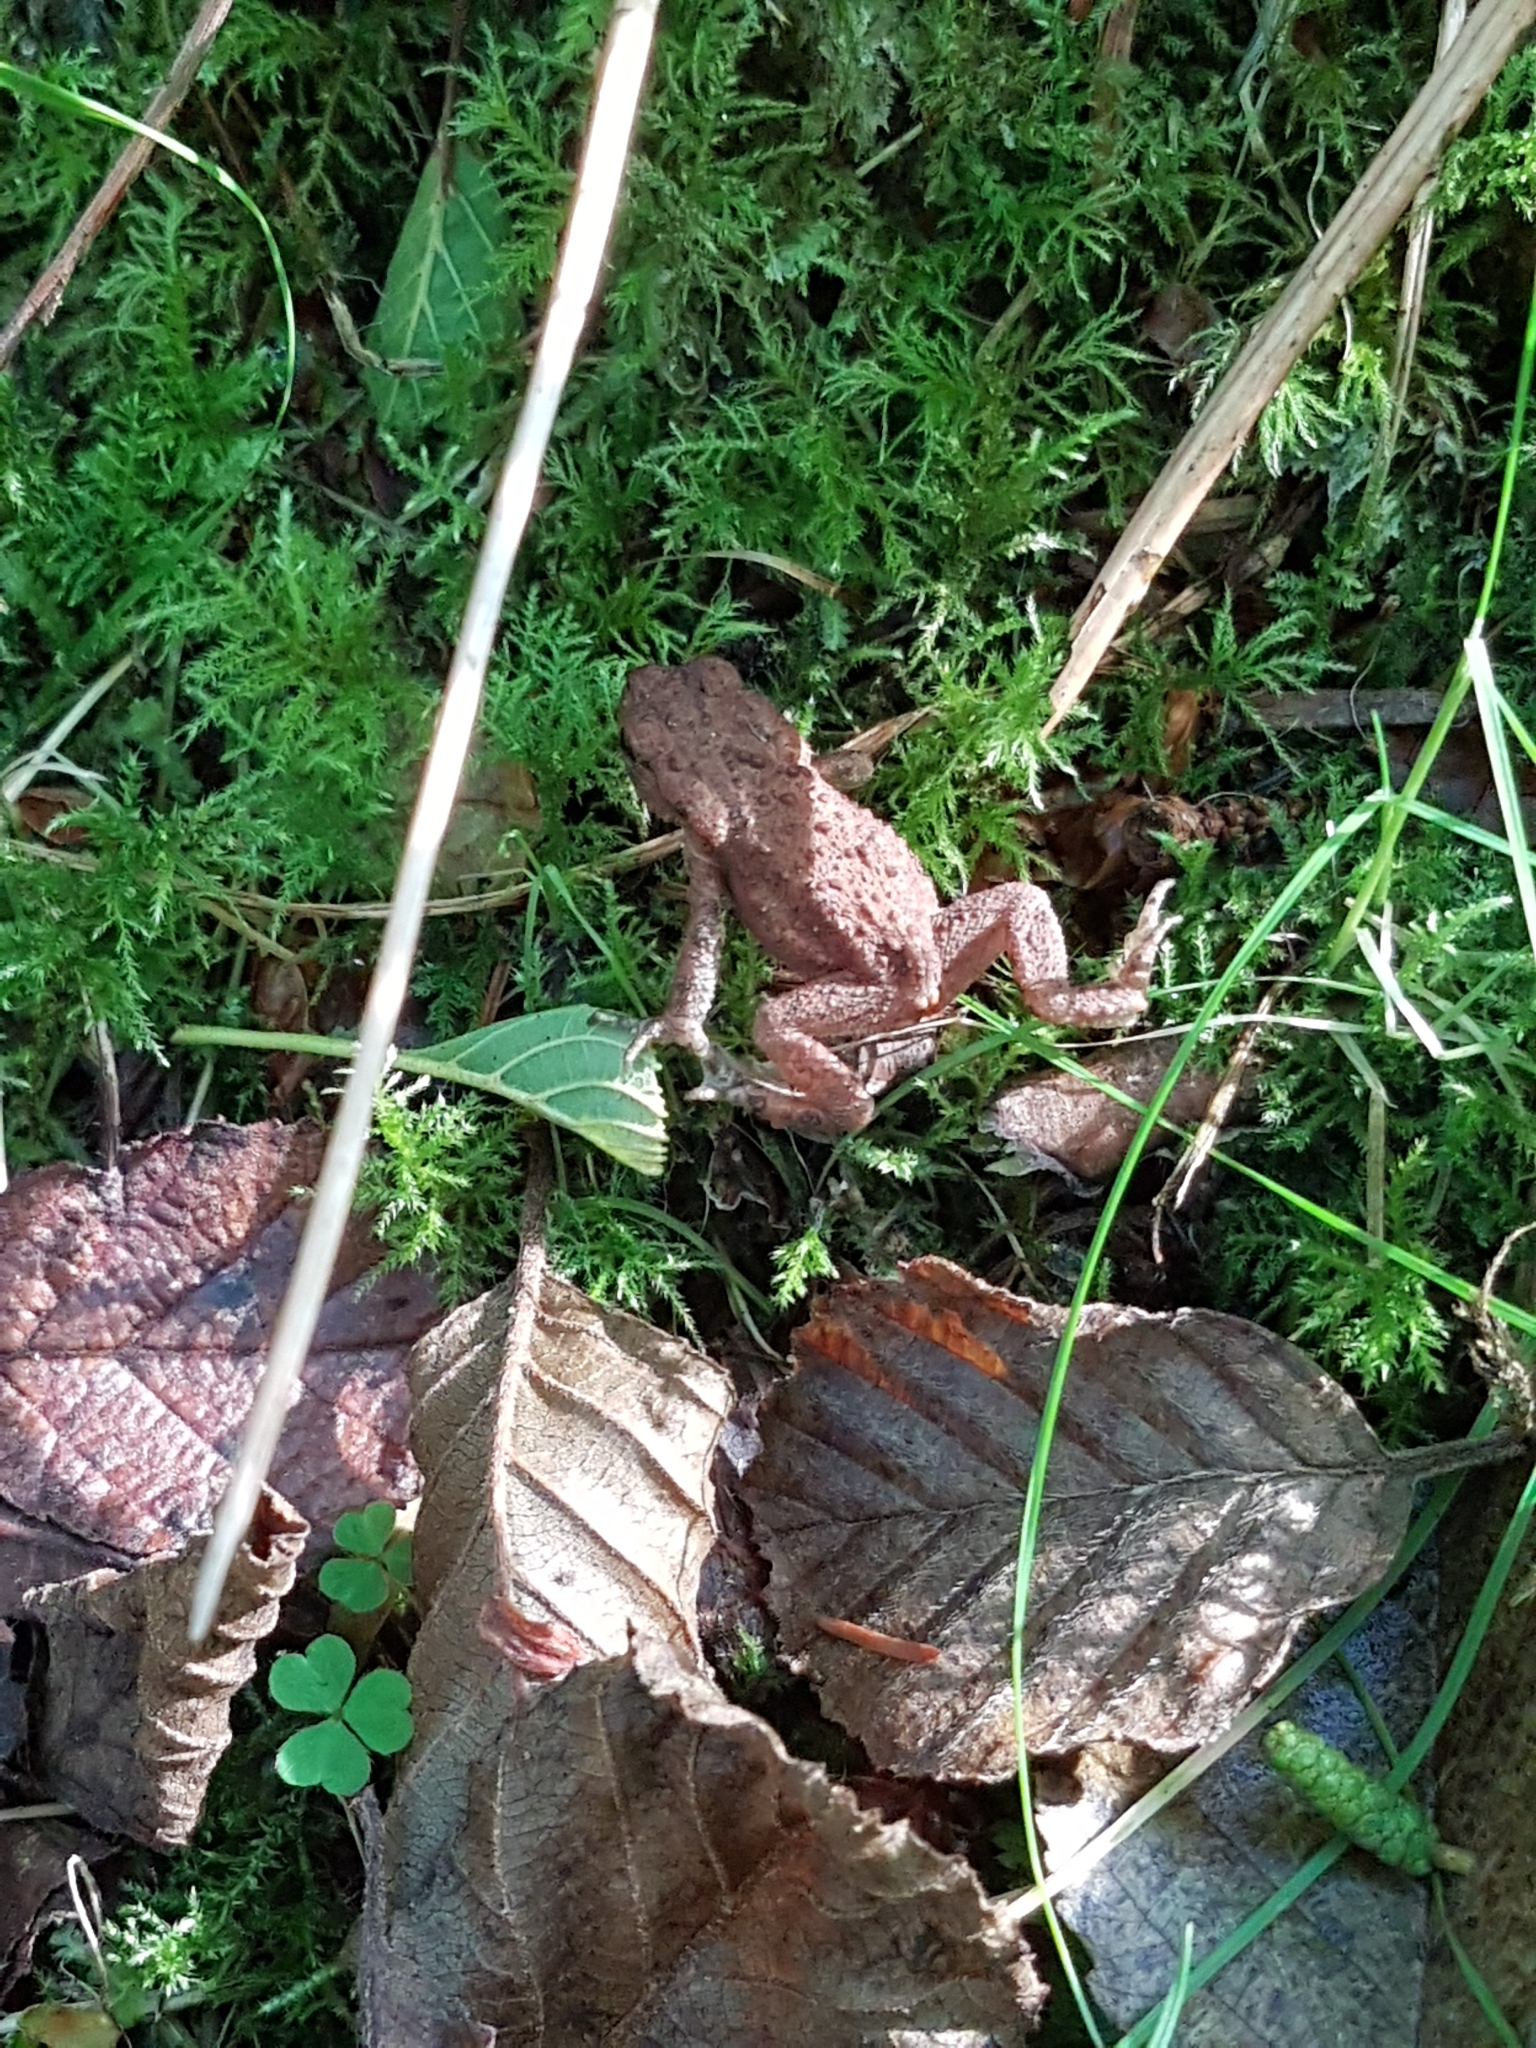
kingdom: Animalia
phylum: Chordata
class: Amphibia
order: Anura
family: Bufonidae
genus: Bufo
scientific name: Bufo bufo
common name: Common toad
